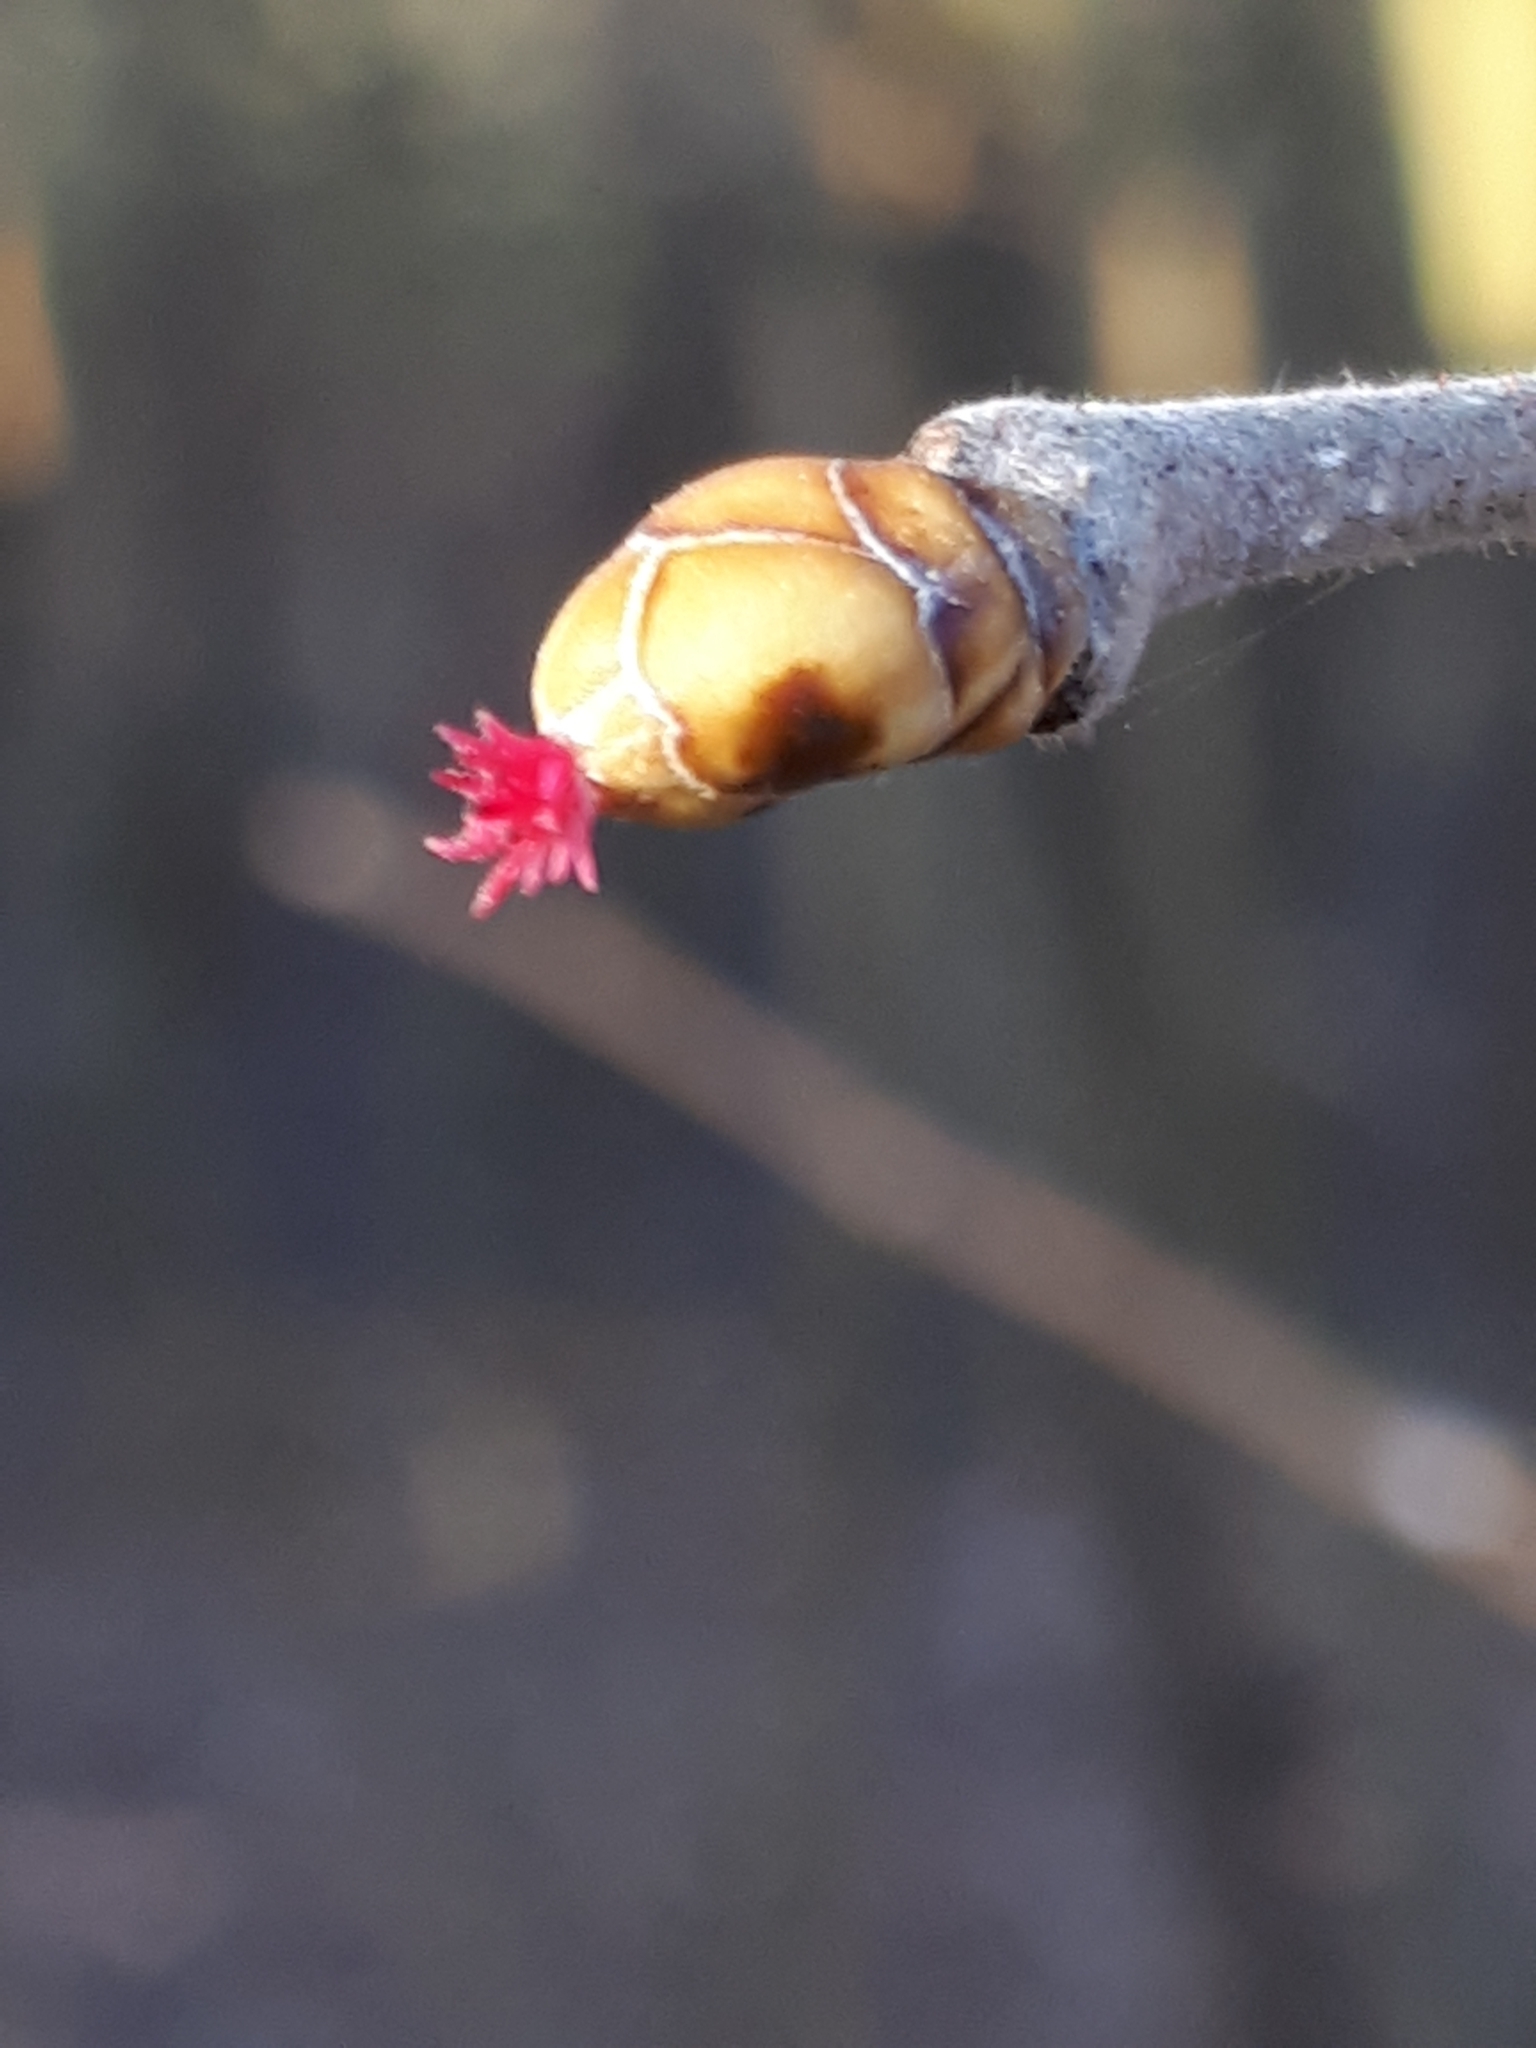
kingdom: Plantae
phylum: Tracheophyta
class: Magnoliopsida
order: Fagales
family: Betulaceae
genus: Corylus
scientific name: Corylus avellana
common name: European hazel
